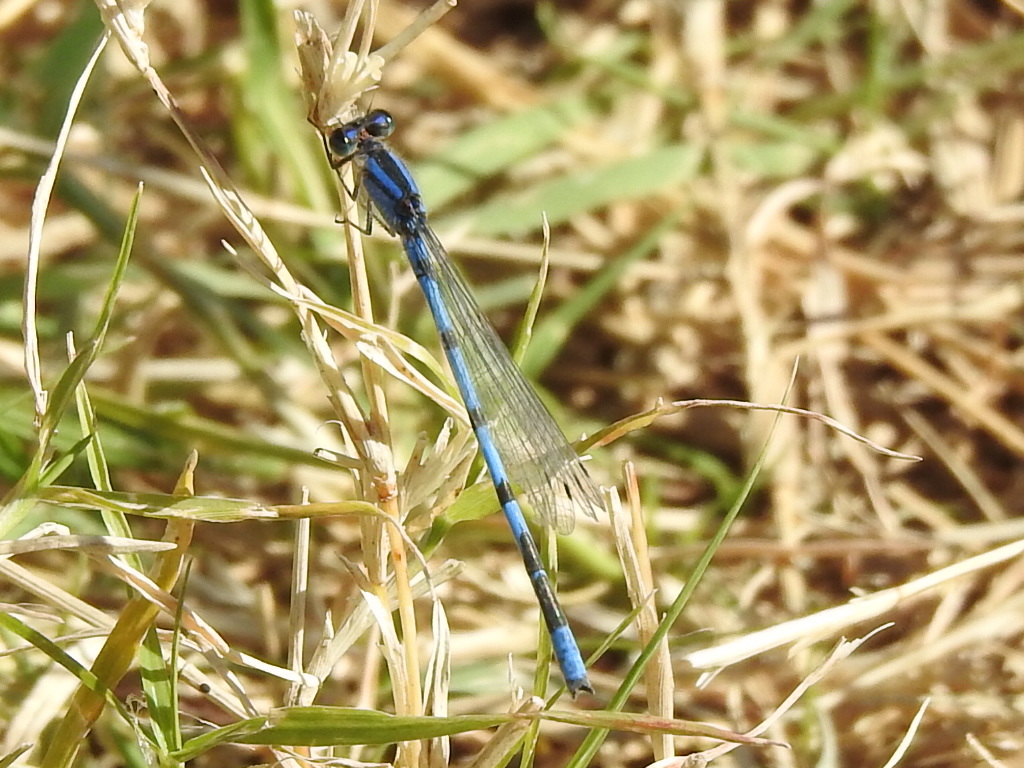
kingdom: Animalia
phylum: Arthropoda
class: Insecta
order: Odonata
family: Coenagrionidae
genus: Enallagma
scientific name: Enallagma civile
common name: Damselfly
